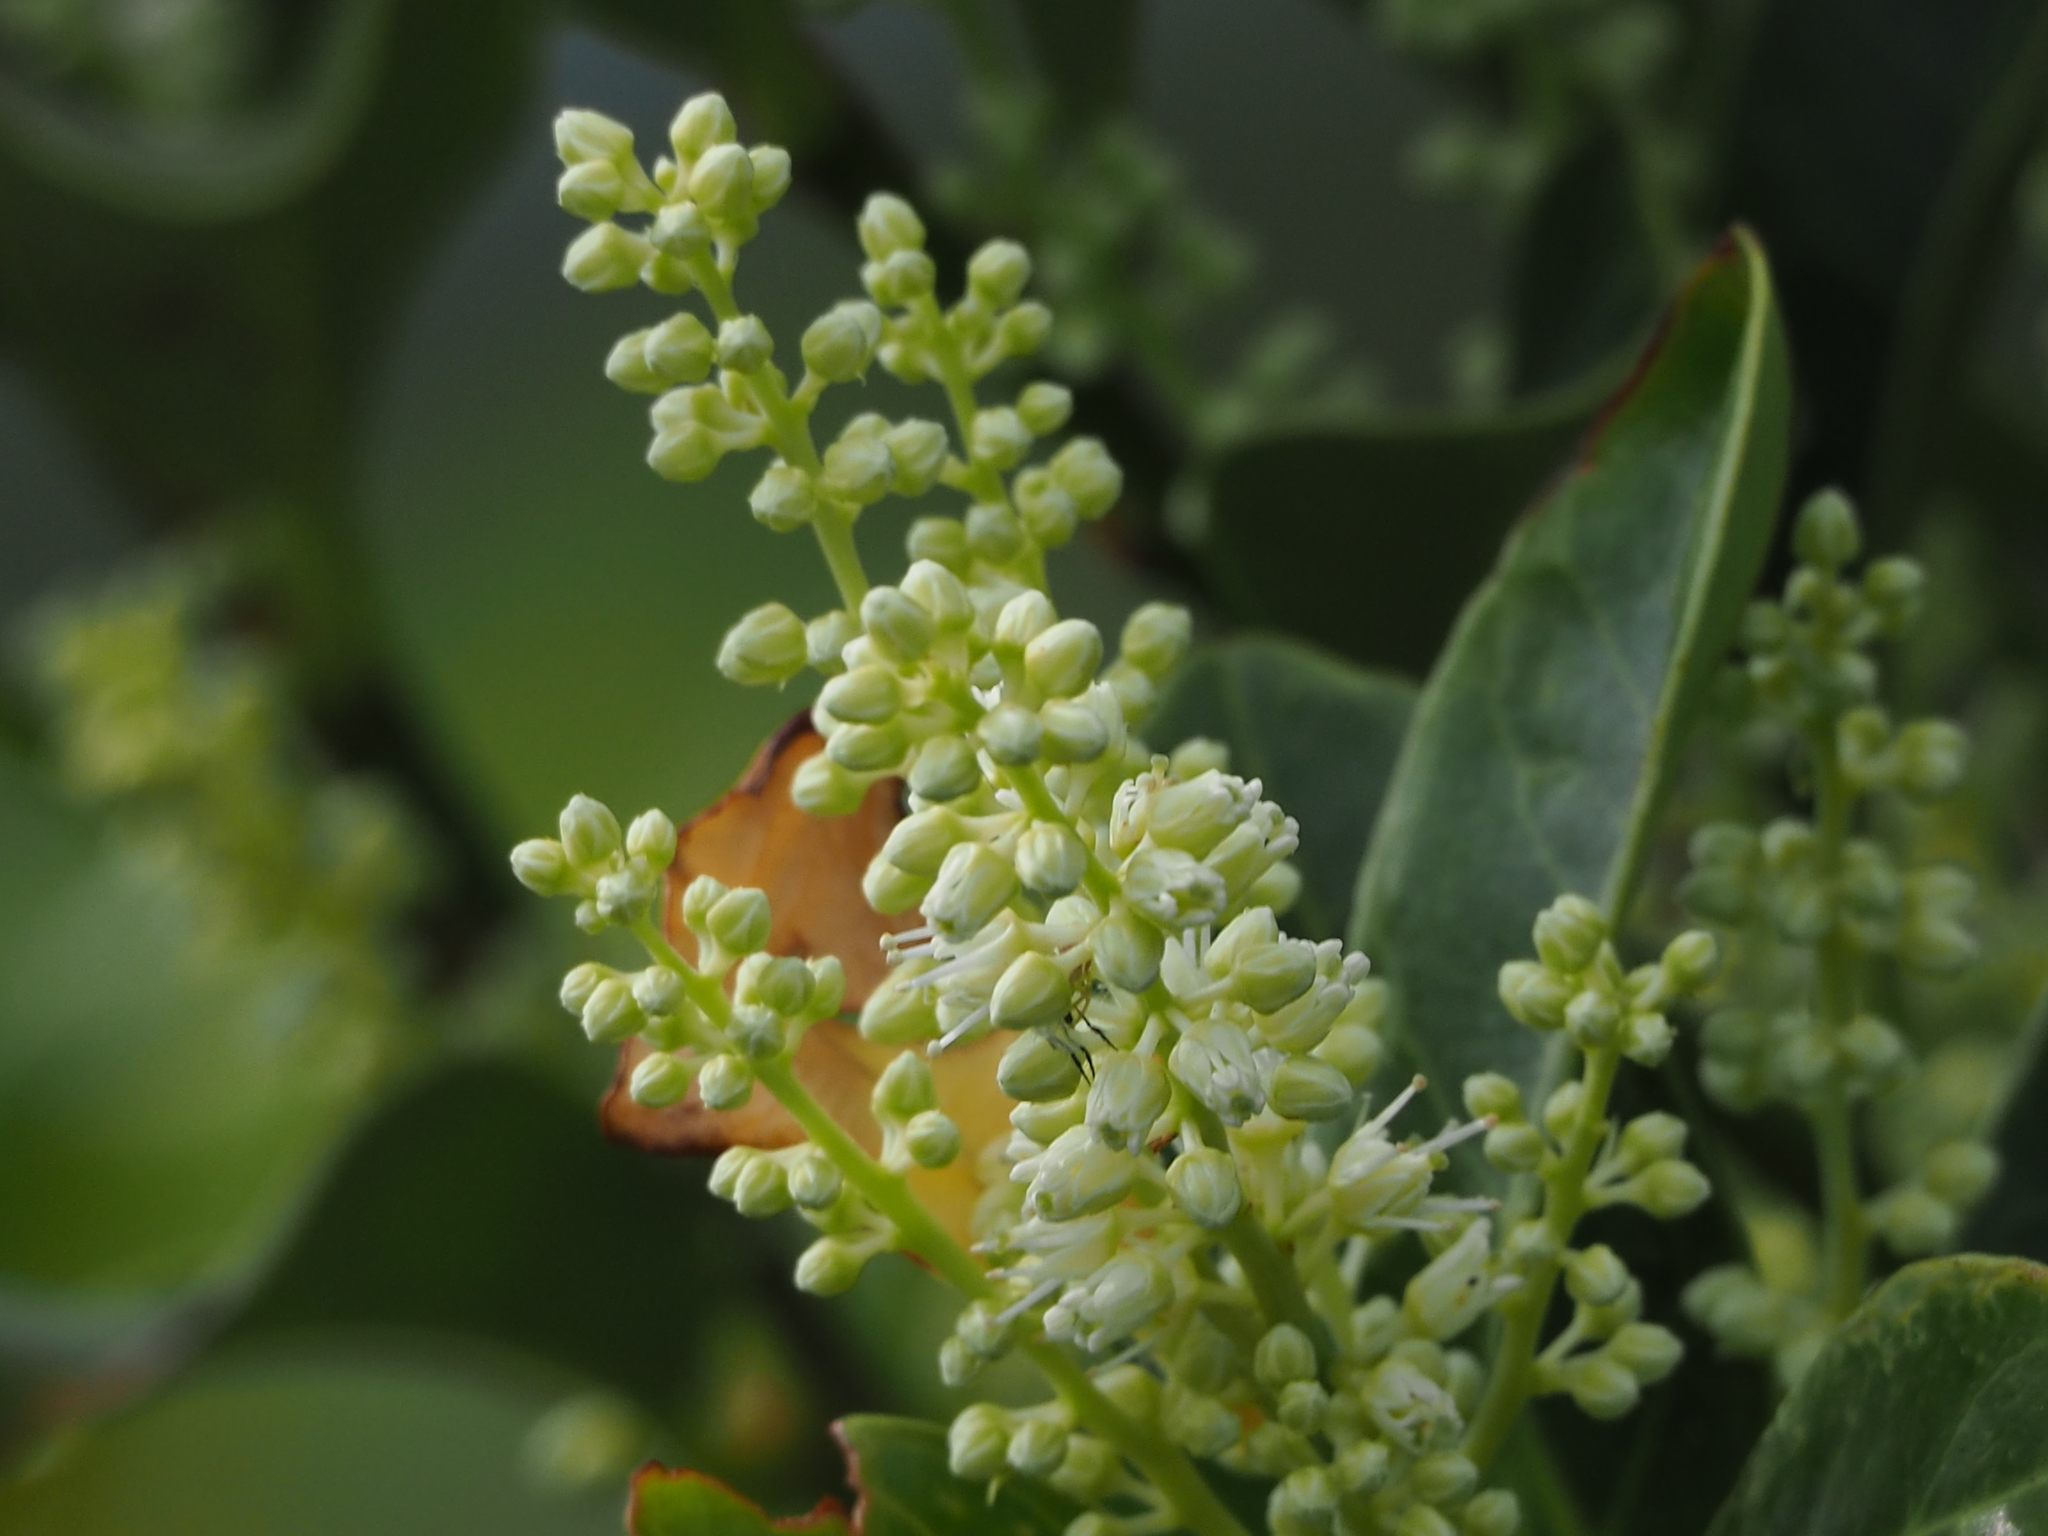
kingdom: Plantae
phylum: Tracheophyta
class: Magnoliopsida
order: Saxifragales
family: Iteaceae
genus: Itea
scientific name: Itea oldhamii
